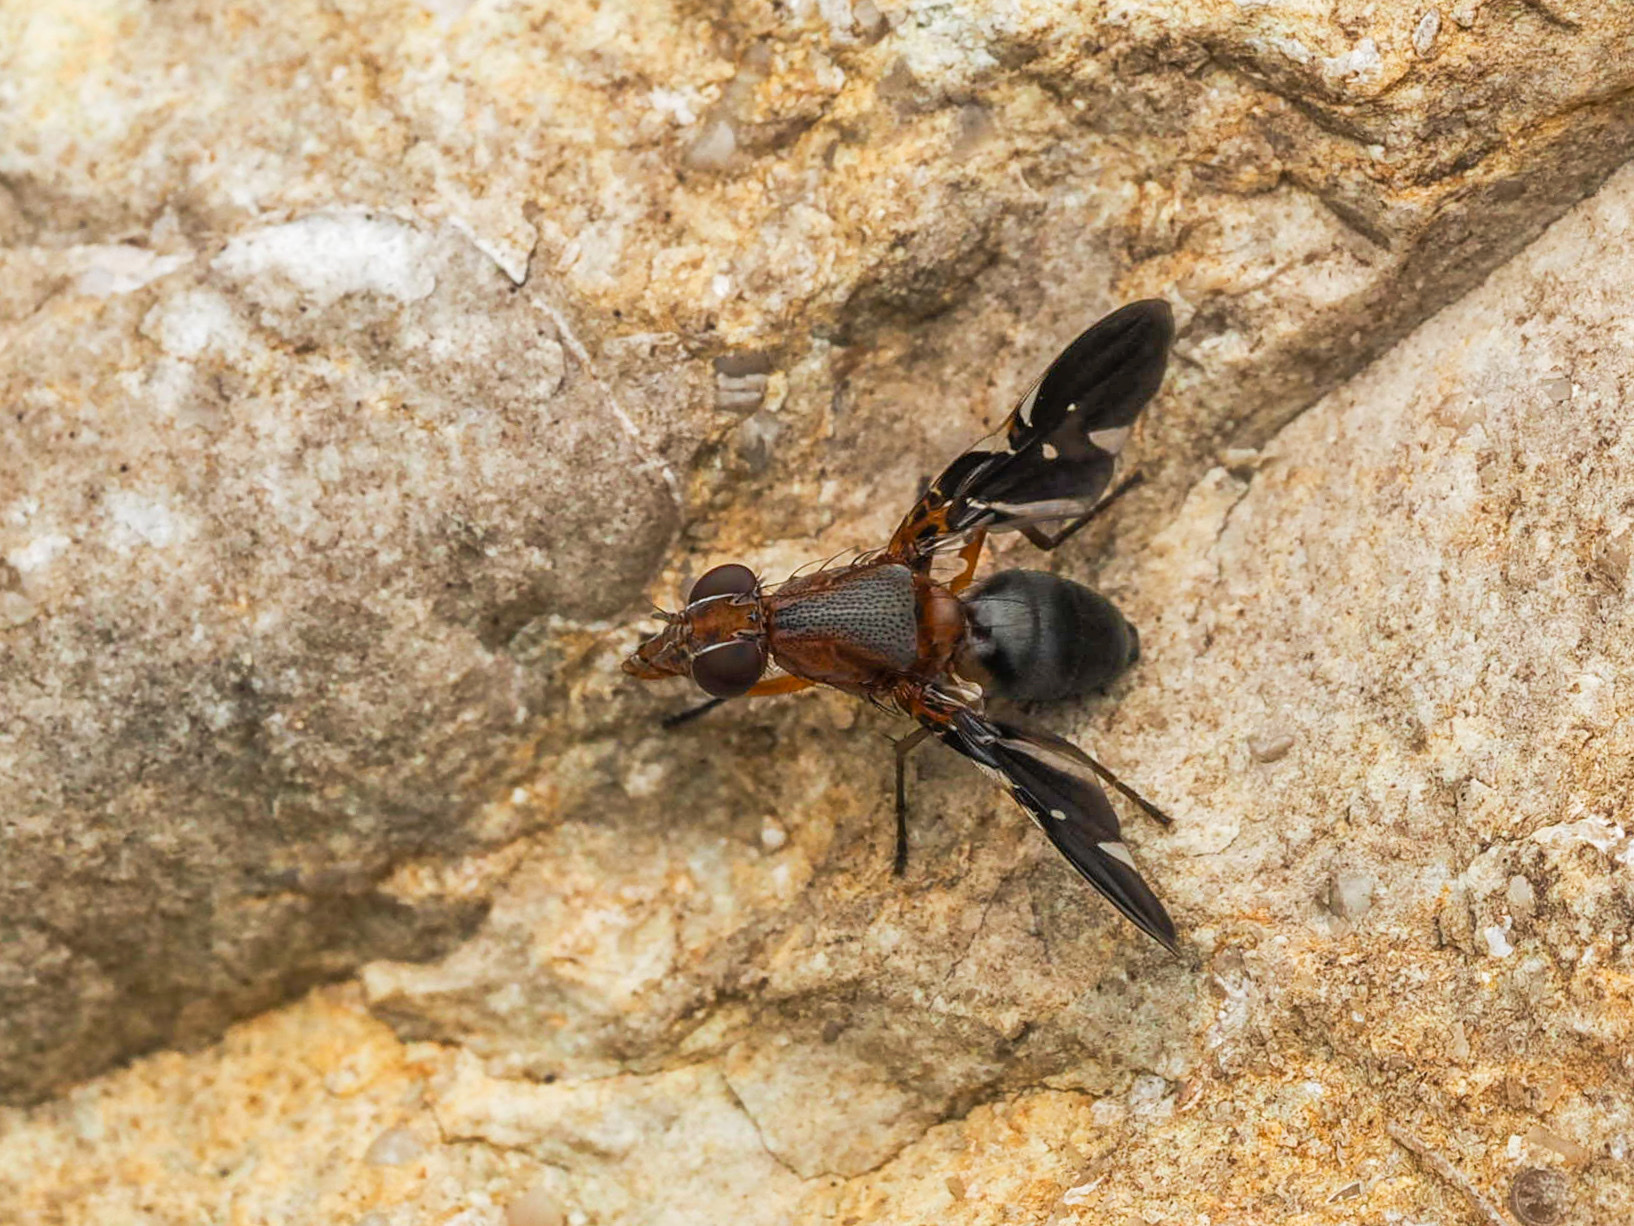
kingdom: Animalia
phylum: Arthropoda
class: Insecta
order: Diptera
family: Ulidiidae
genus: Delphinia
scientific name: Delphinia picta
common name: Common picture-winged fly
